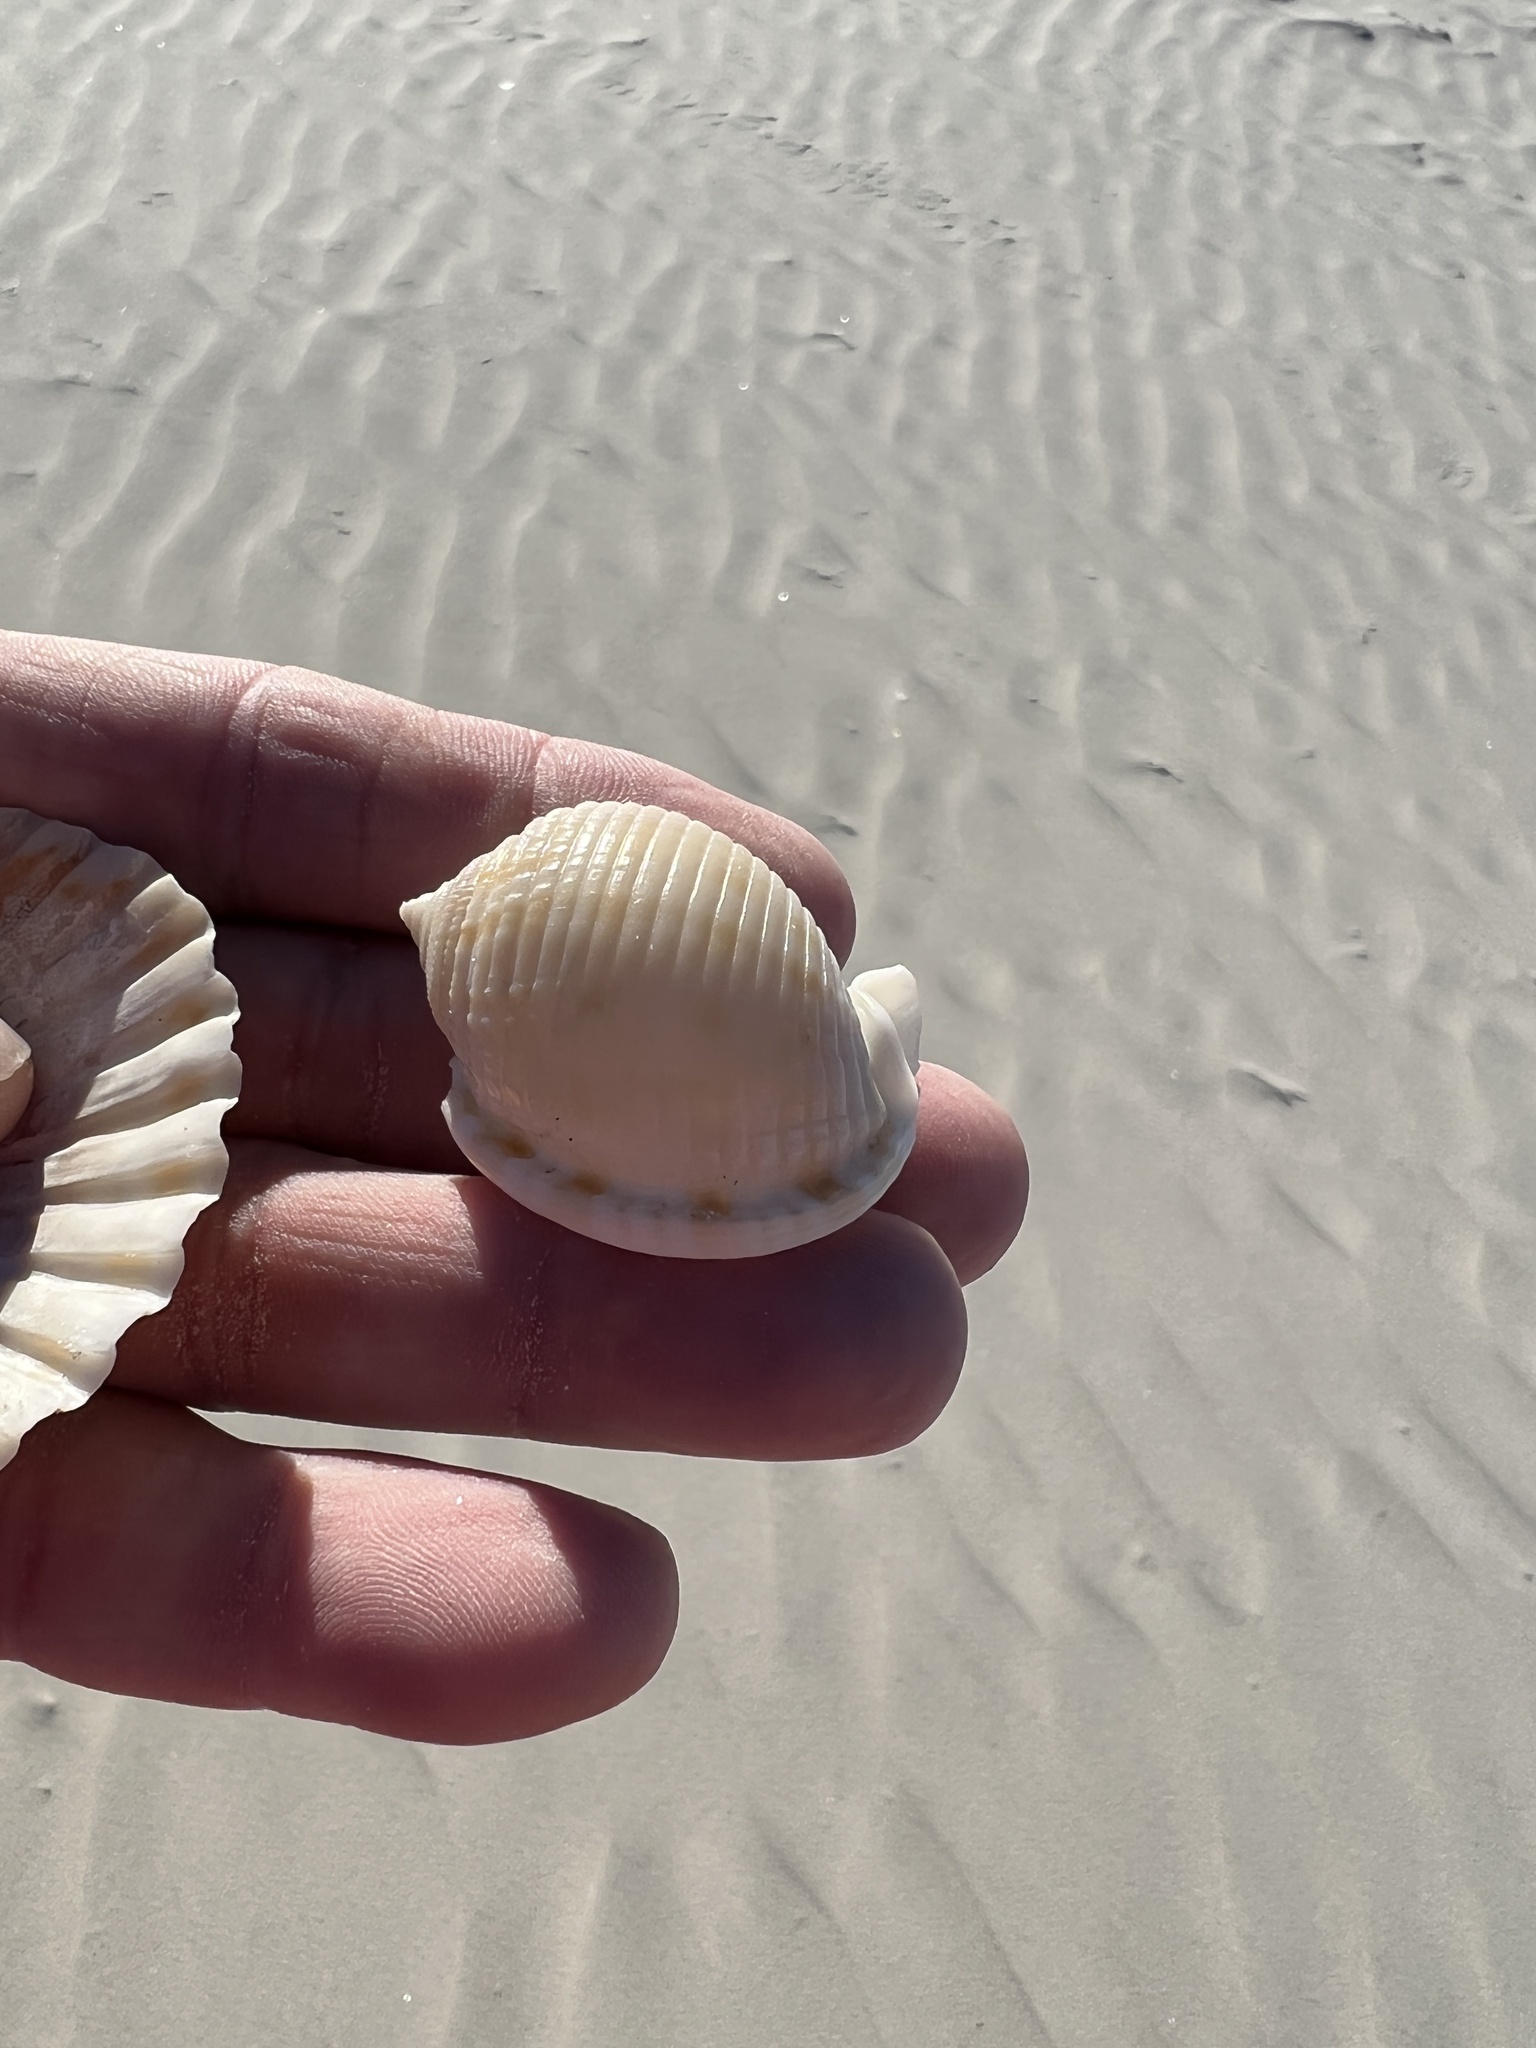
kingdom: Animalia
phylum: Mollusca
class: Gastropoda
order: Littorinimorpha
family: Cassidae
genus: Semicassis
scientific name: Semicassis granulata
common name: Scotch bonnet
